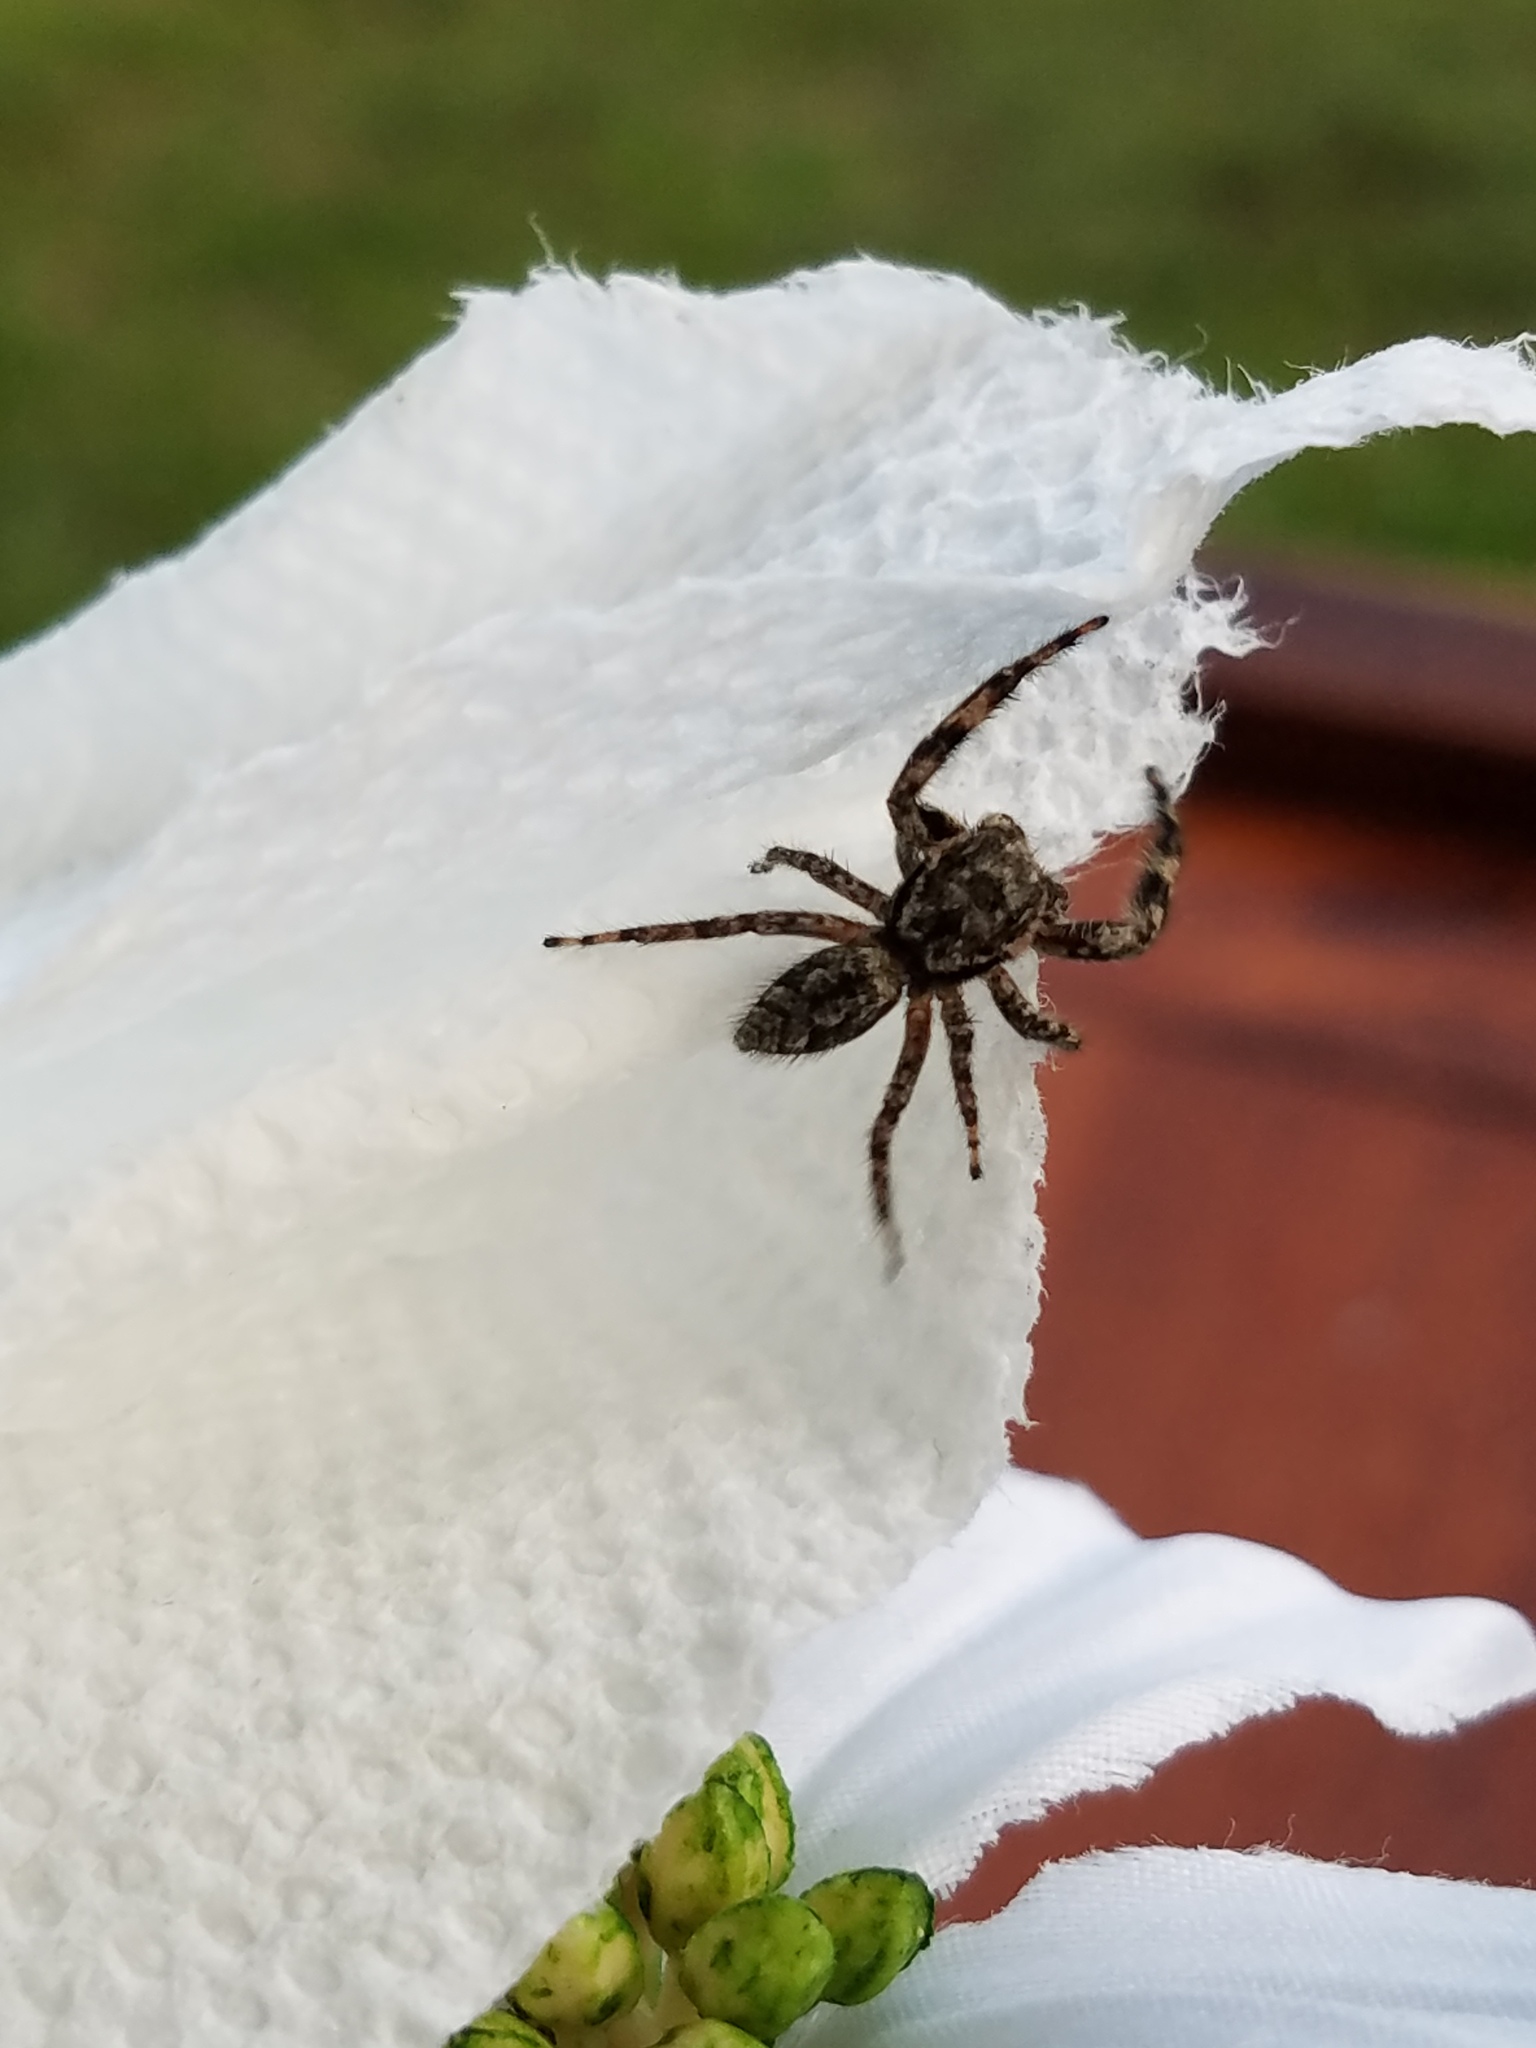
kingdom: Animalia
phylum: Arthropoda
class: Arachnida
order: Araneae
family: Salticidae
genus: Platycryptus
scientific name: Platycryptus undatus
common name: Tan jumping spider
